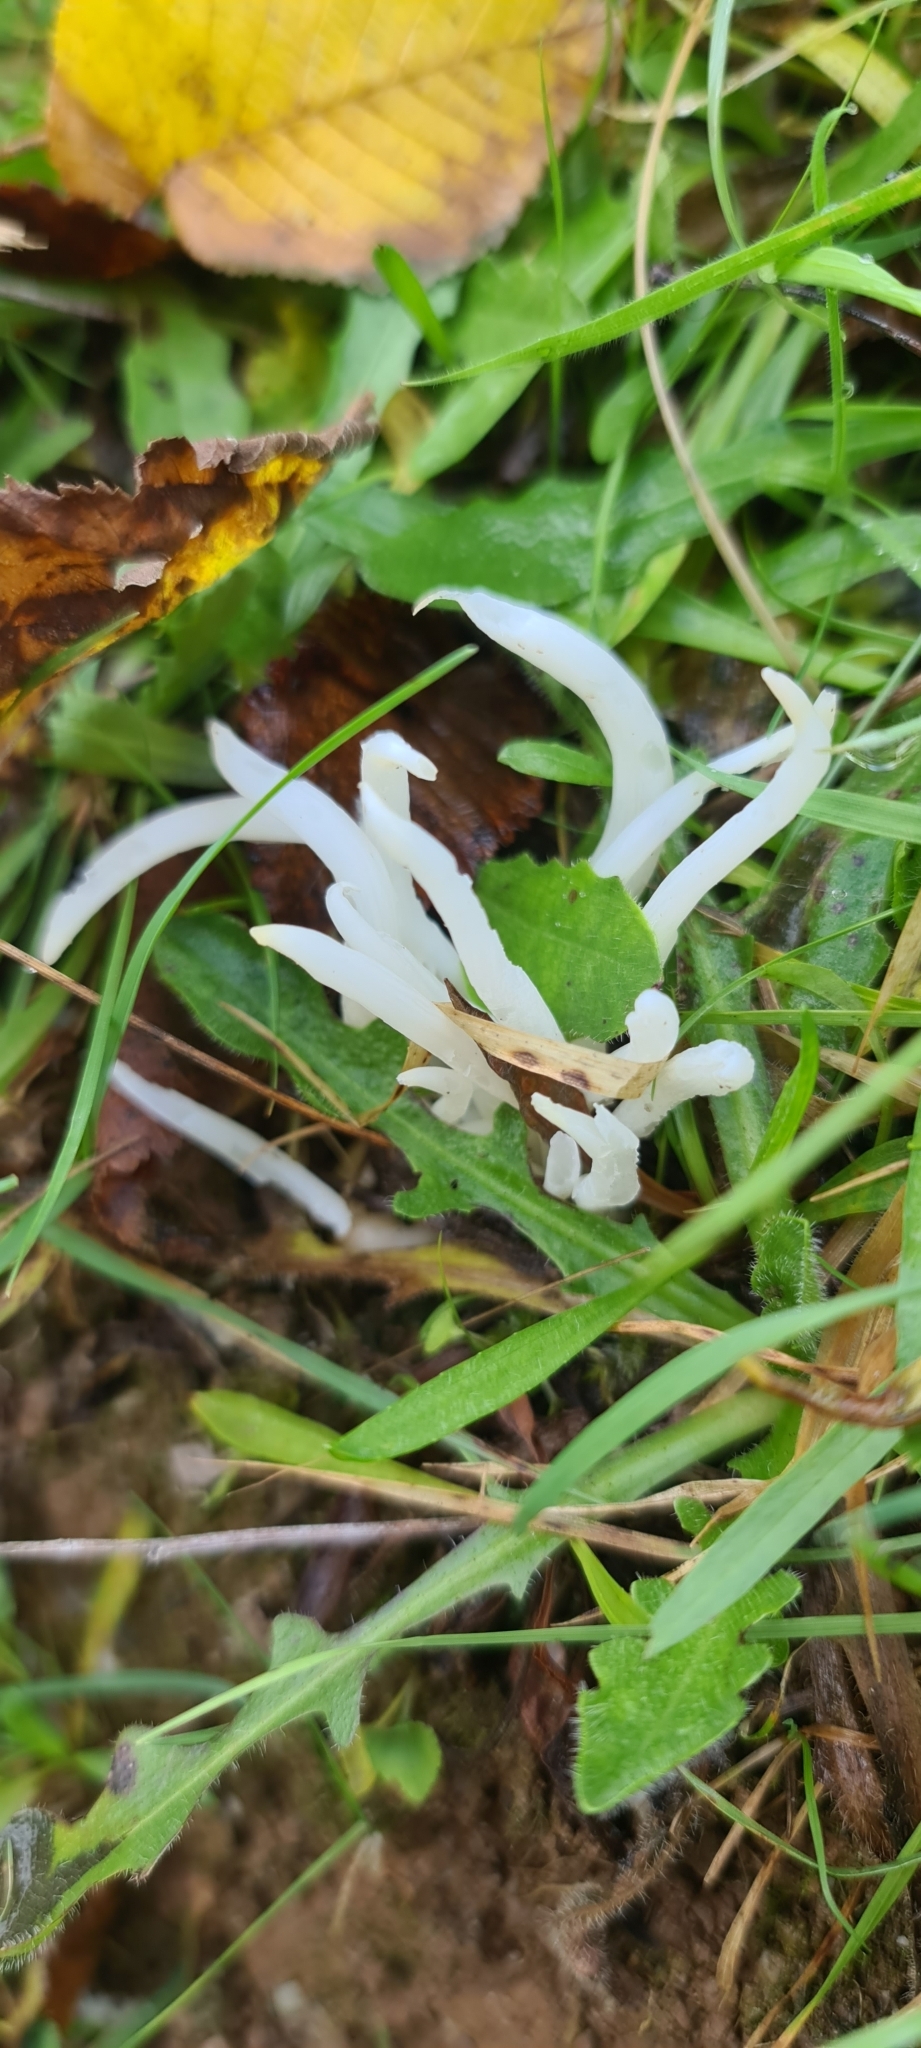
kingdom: Fungi
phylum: Basidiomycota
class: Agaricomycetes
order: Agaricales
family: Clavariaceae
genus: Clavaria
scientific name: Clavaria fragilis
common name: White spindles
